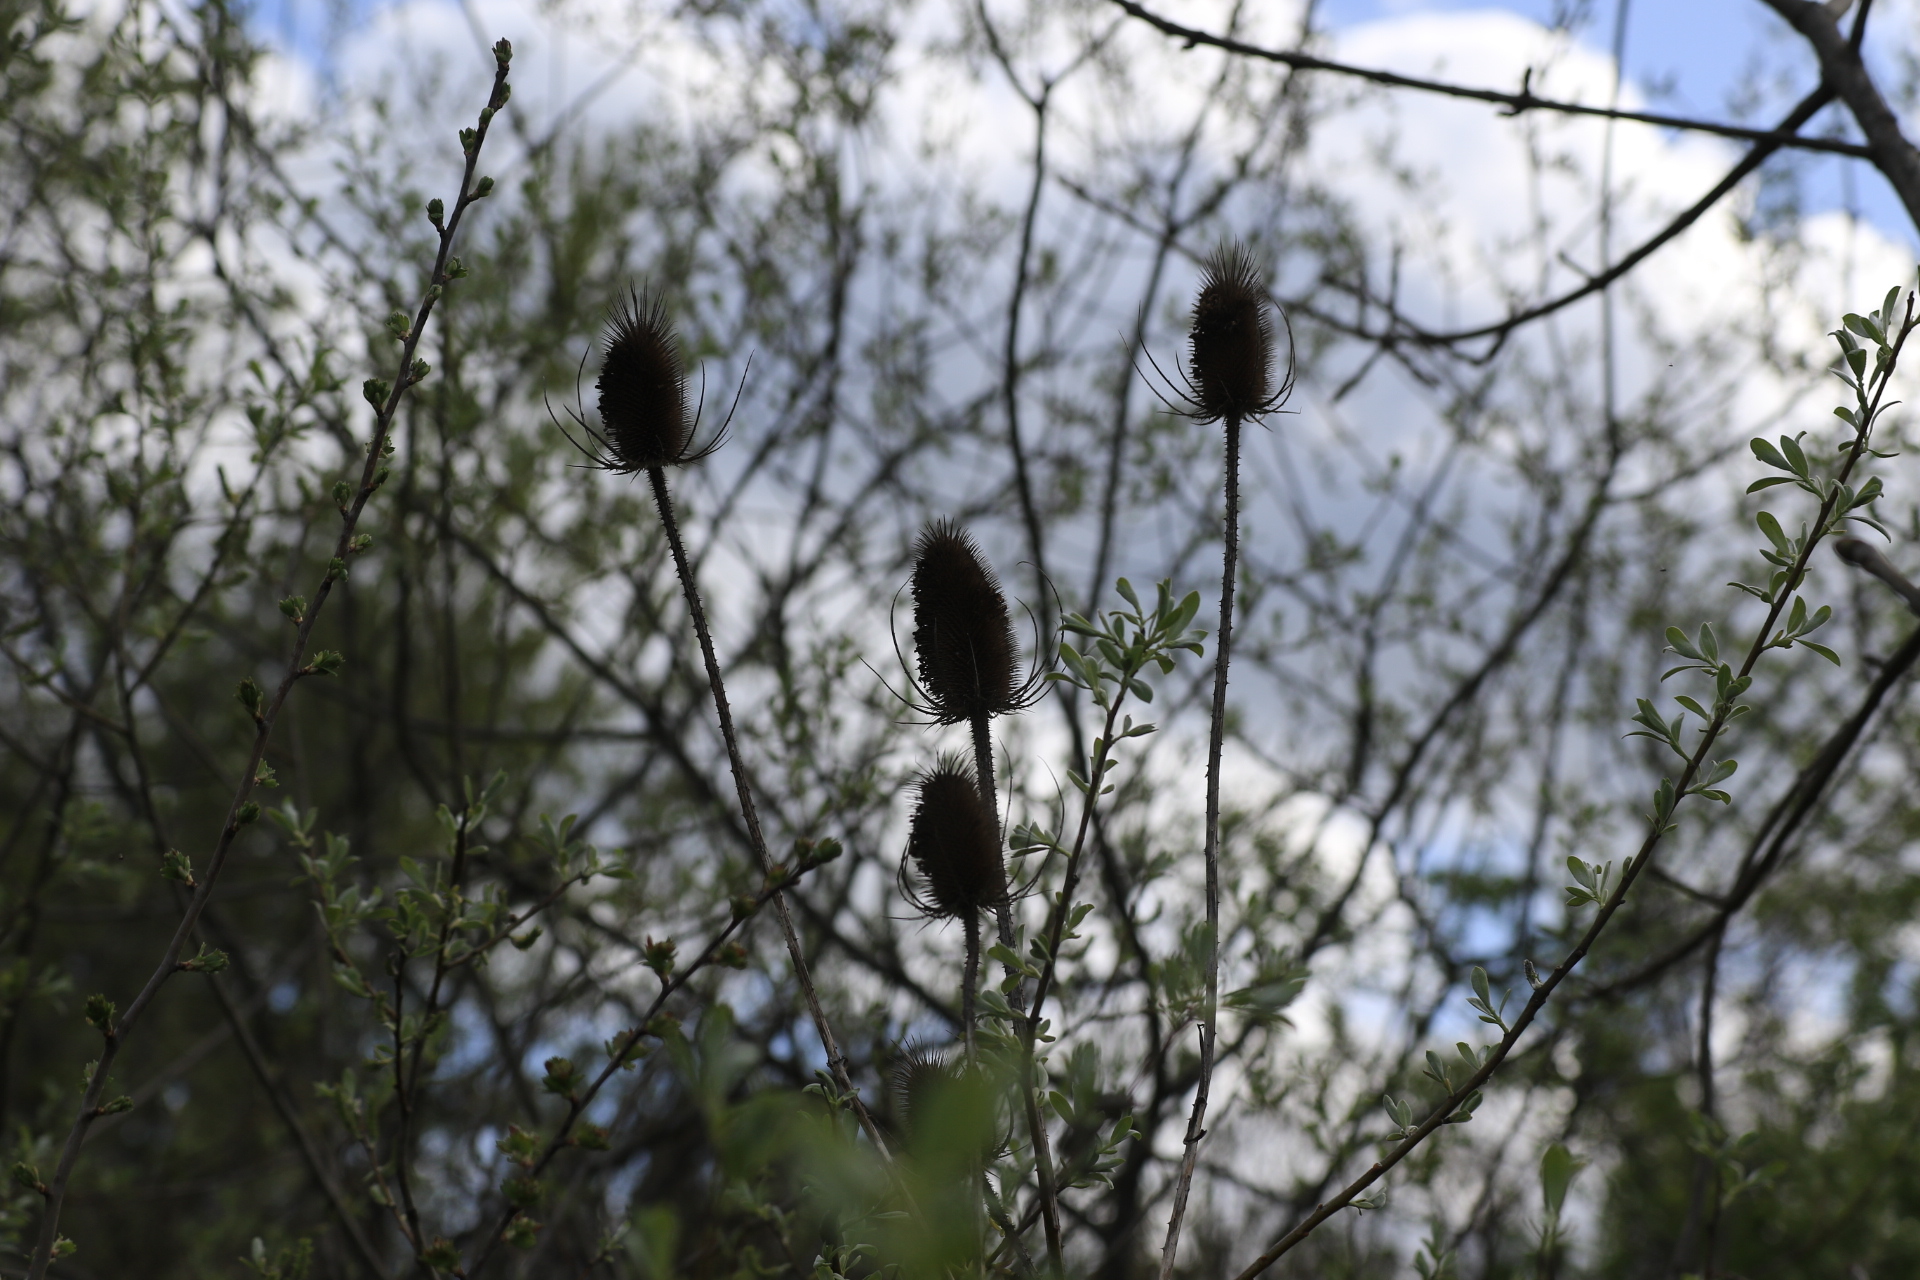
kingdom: Plantae
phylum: Tracheophyta
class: Magnoliopsida
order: Dipsacales
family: Caprifoliaceae
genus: Dipsacus
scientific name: Dipsacus fullonum
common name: Teasel
